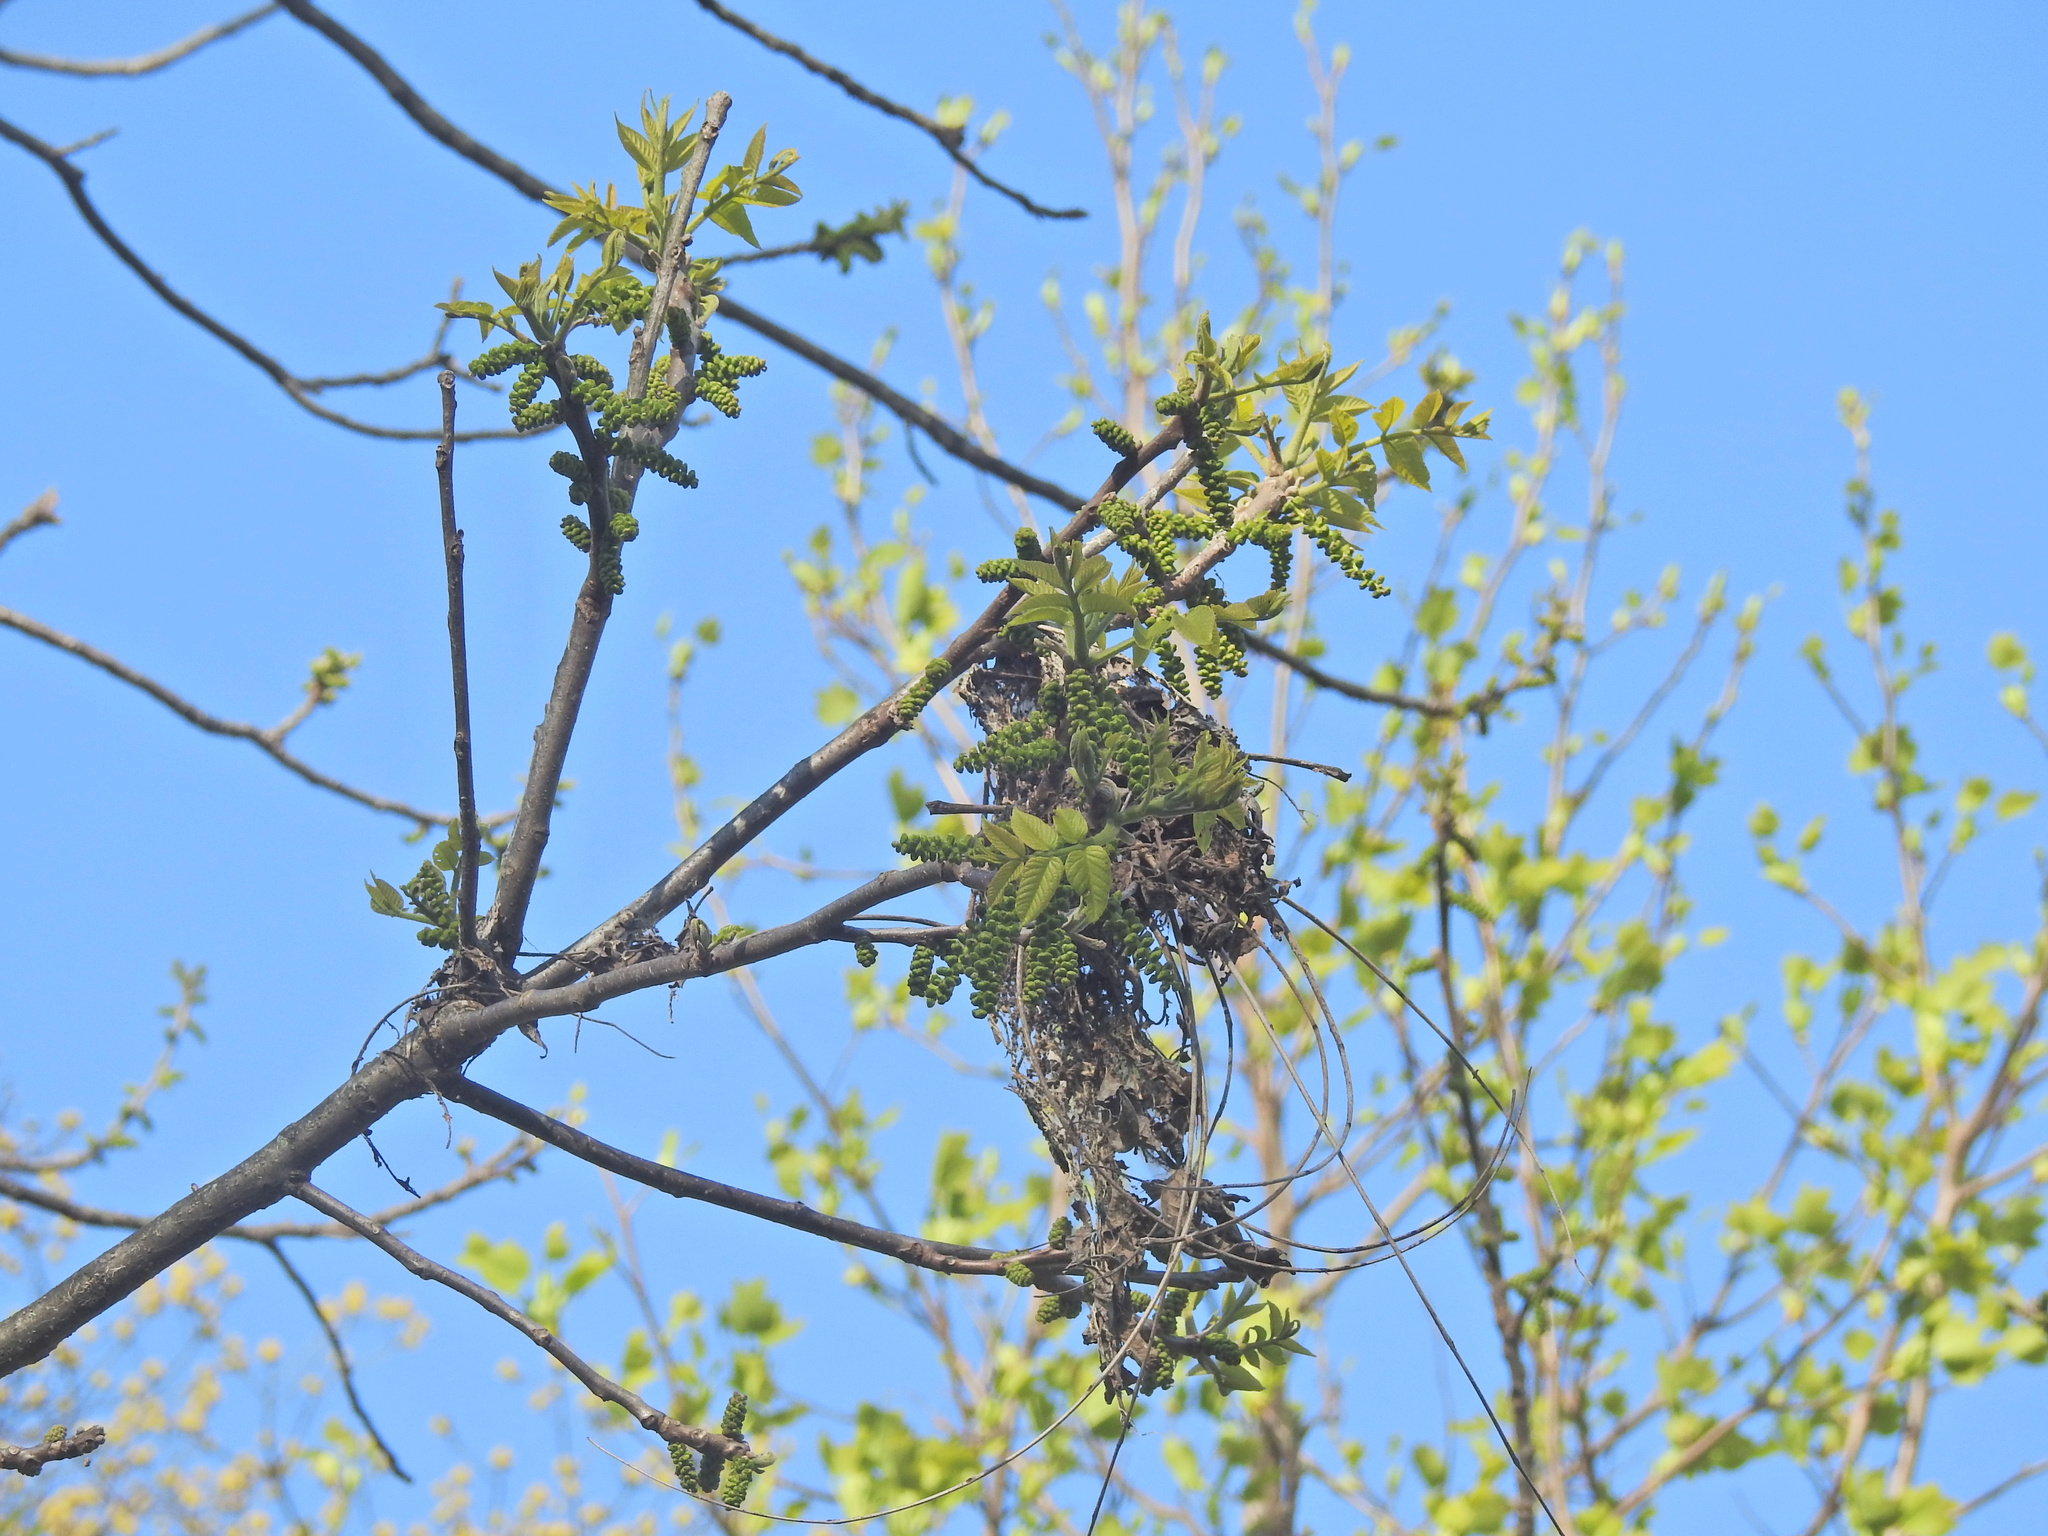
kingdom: Plantae
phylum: Tracheophyta
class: Magnoliopsida
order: Fagales
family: Juglandaceae
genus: Juglans
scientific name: Juglans nigra
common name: Black walnut
